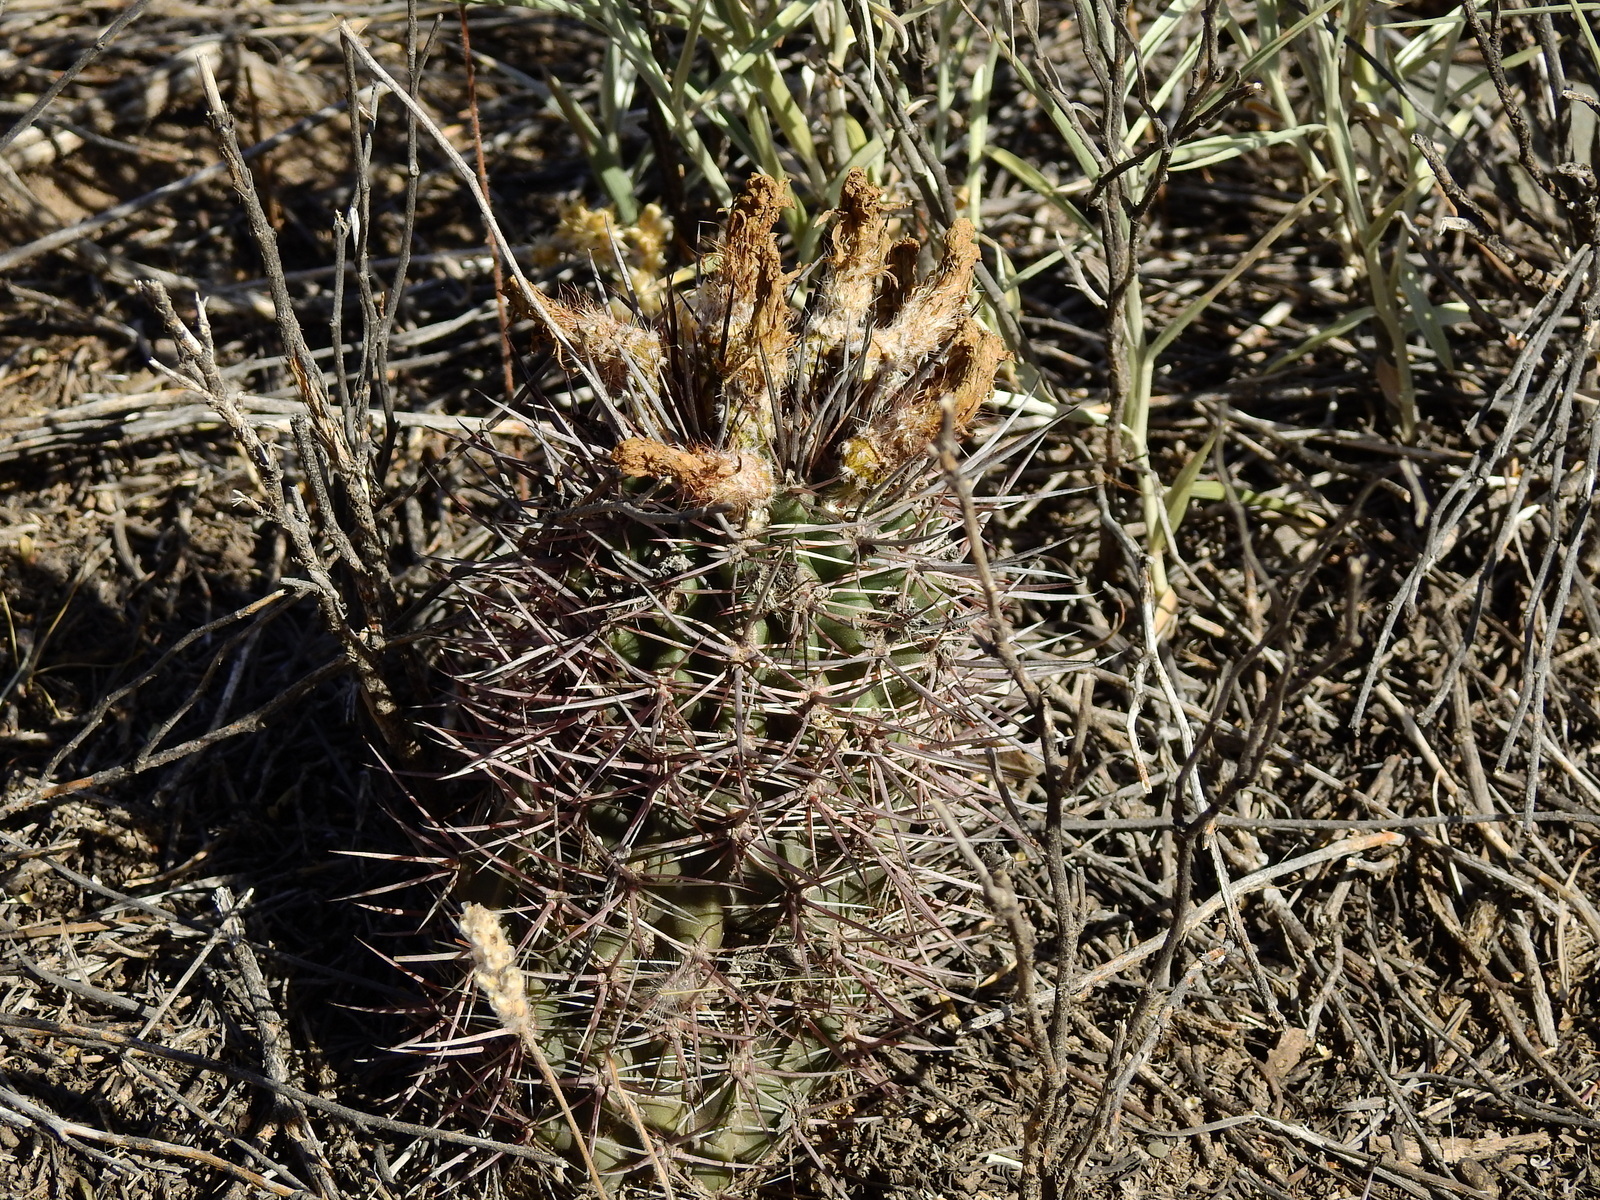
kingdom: Plantae
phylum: Tracheophyta
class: Magnoliopsida
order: Caryophyllales
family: Cactaceae
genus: Eriosyce
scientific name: Eriosyce strausiana
